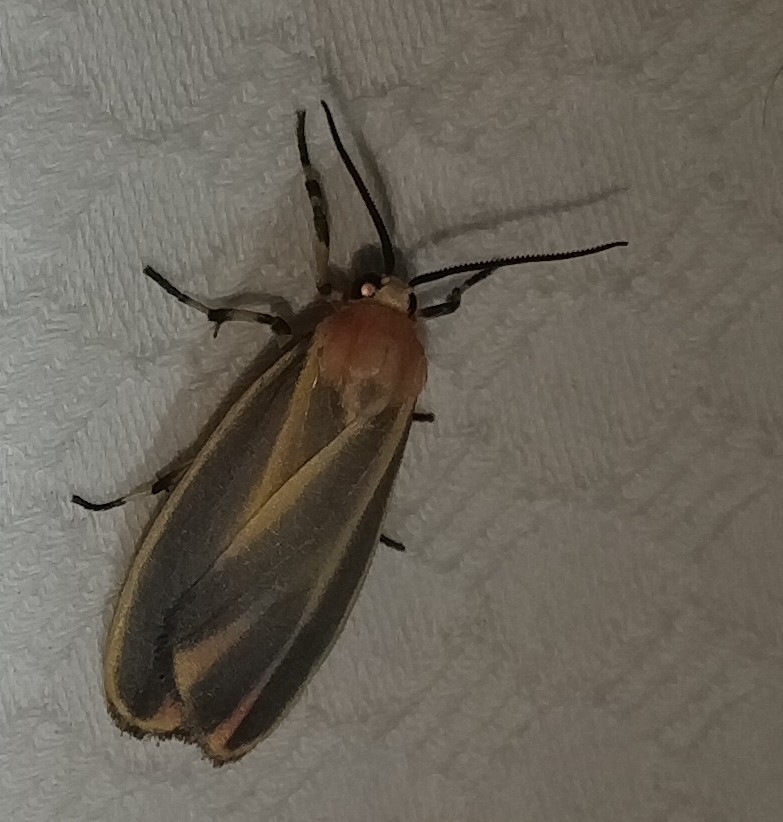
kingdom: Animalia
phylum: Arthropoda
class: Insecta
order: Lepidoptera
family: Erebidae
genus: Hypoprepia
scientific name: Hypoprepia fucosa
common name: Painted lichen moth
